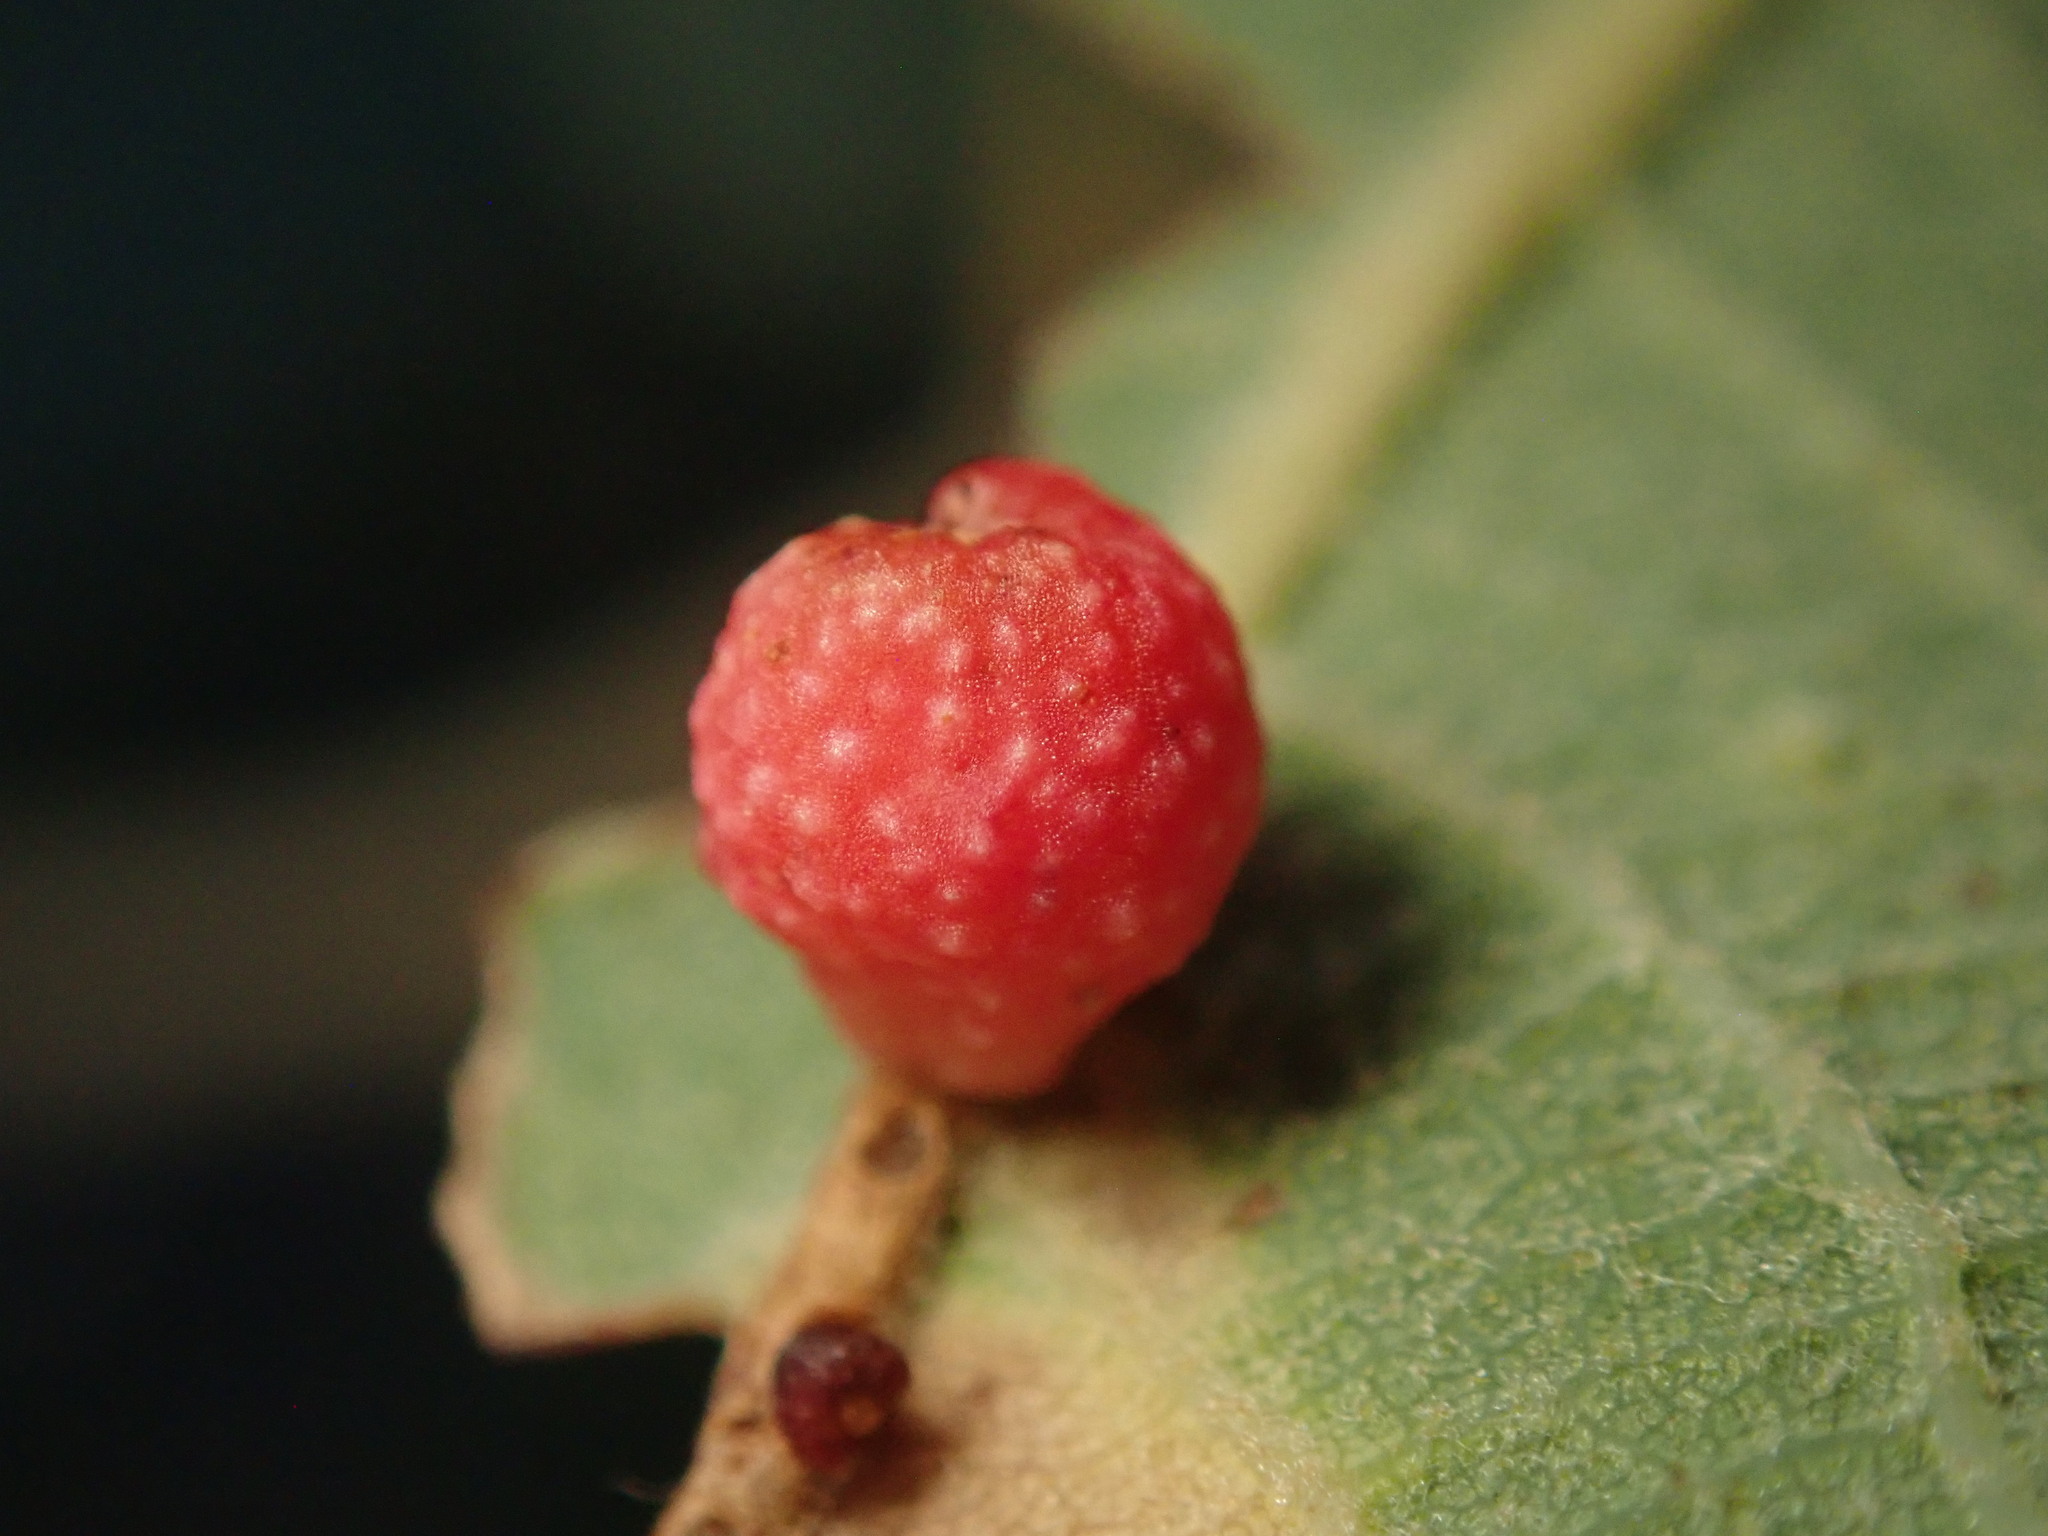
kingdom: Animalia
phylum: Arthropoda
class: Insecta
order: Hymenoptera
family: Cynipidae
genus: Callirhytis
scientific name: Callirhytis
